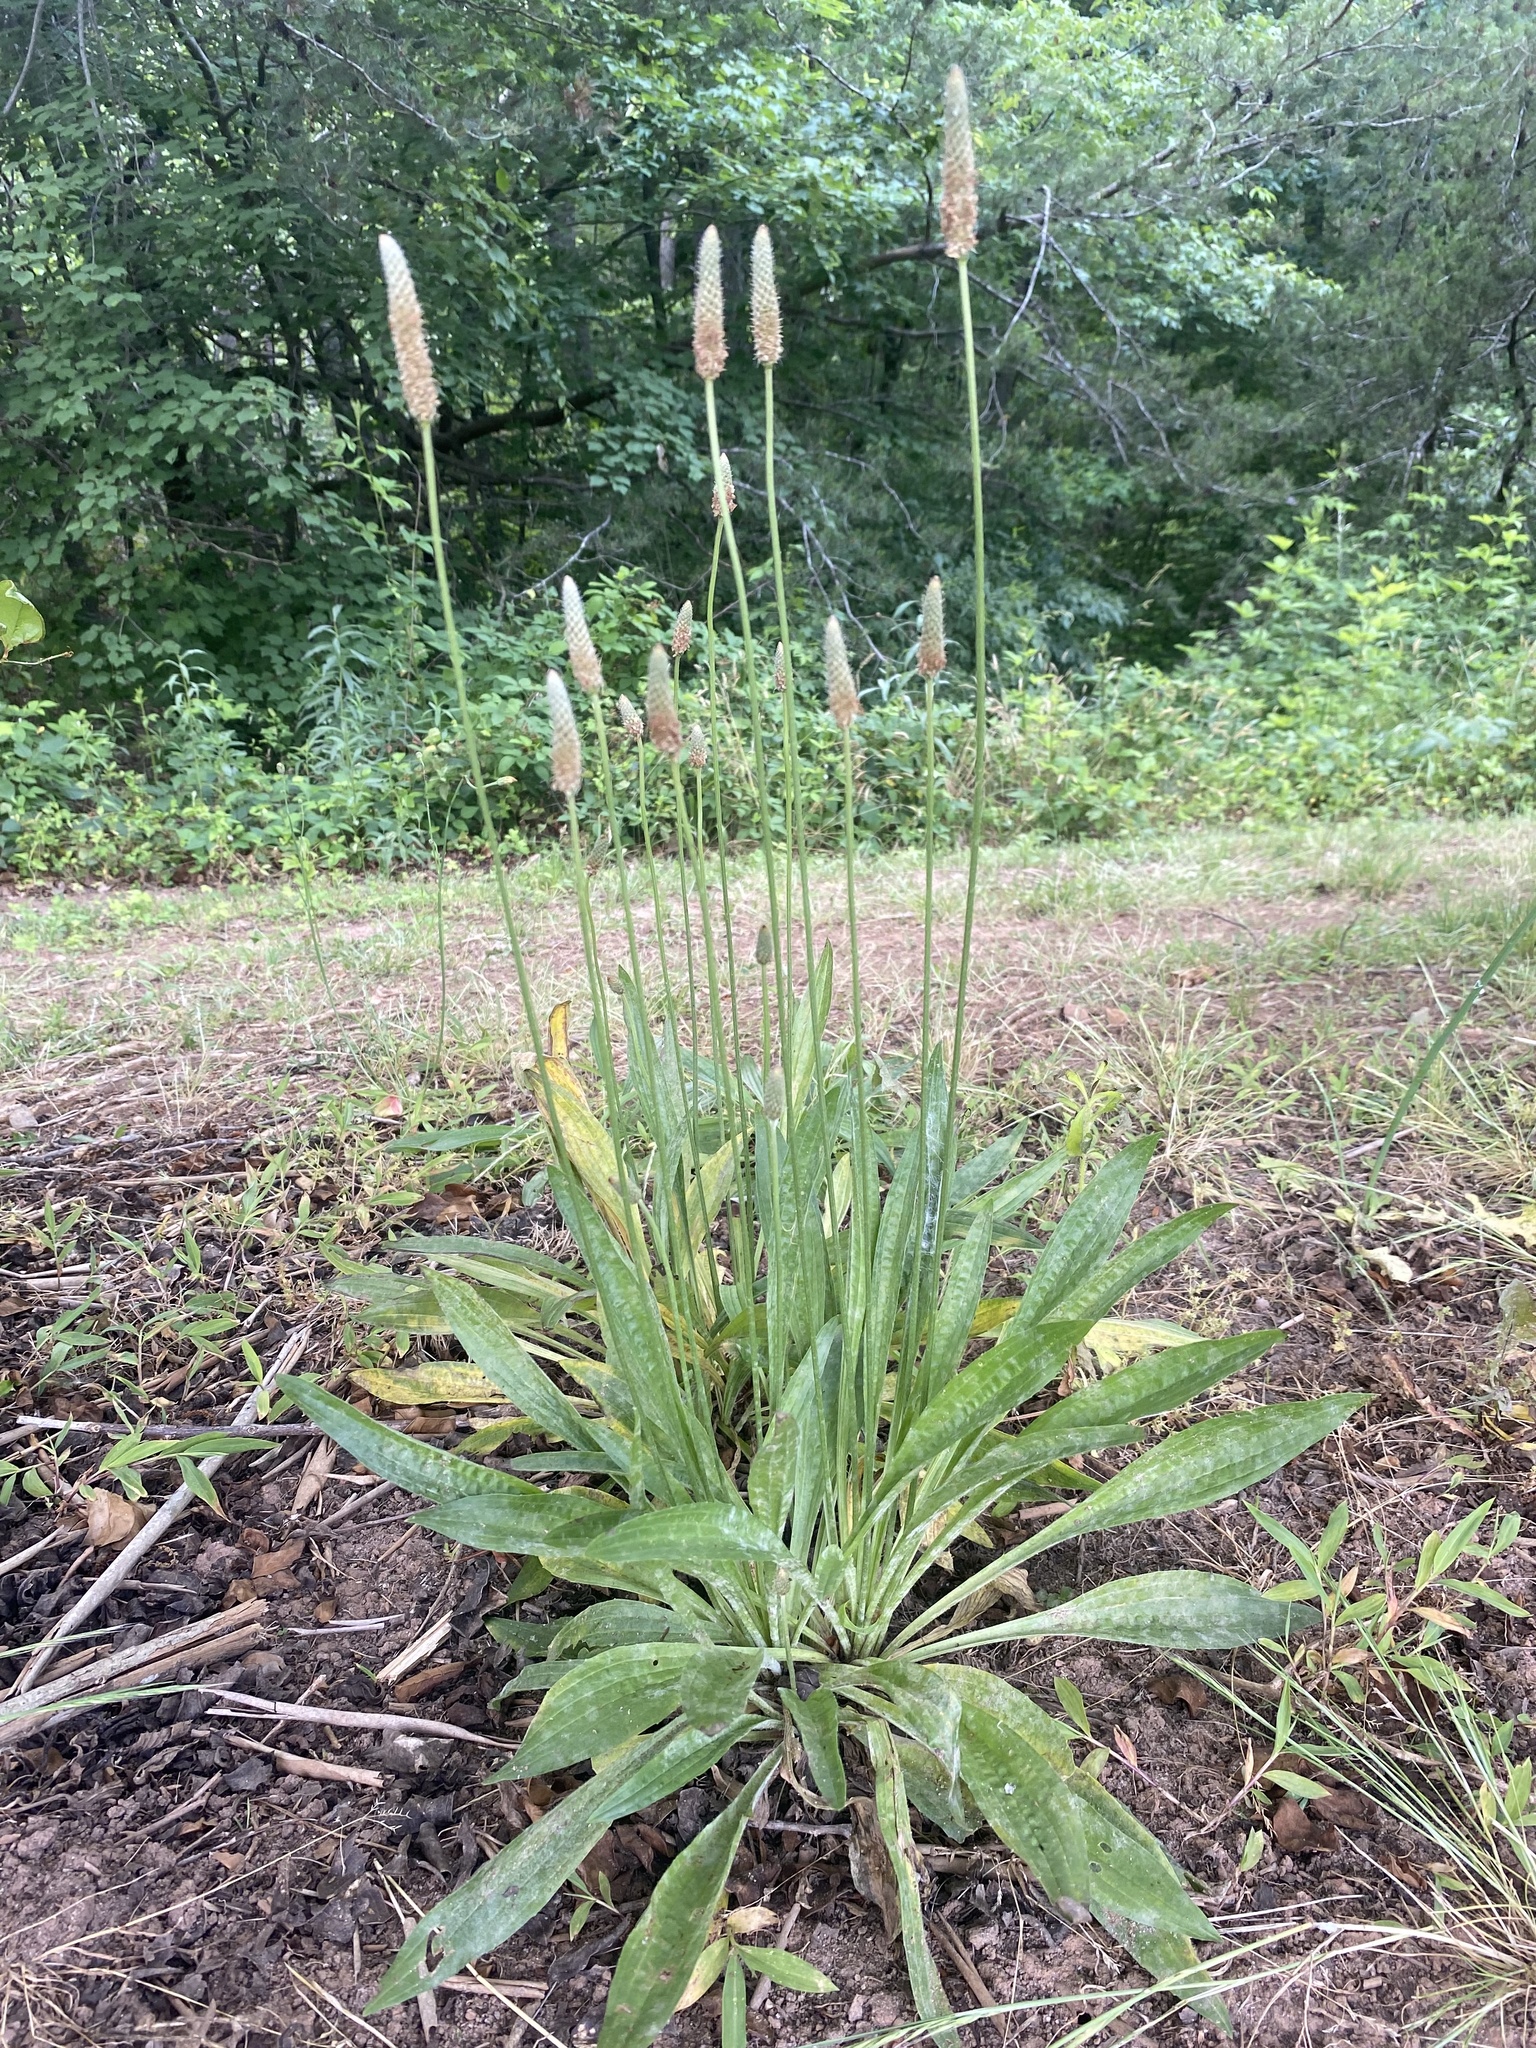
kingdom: Plantae
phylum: Tracheophyta
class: Magnoliopsida
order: Lamiales
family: Plantaginaceae
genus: Plantago
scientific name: Plantago lanceolata
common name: Ribwort plantain
